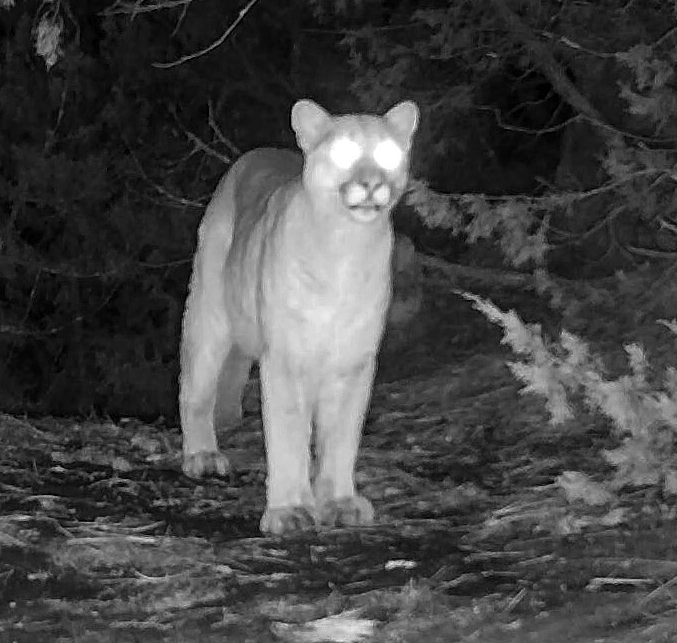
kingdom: Animalia
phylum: Chordata
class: Mammalia
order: Carnivora
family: Felidae
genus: Puma
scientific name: Puma concolor
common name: Puma
